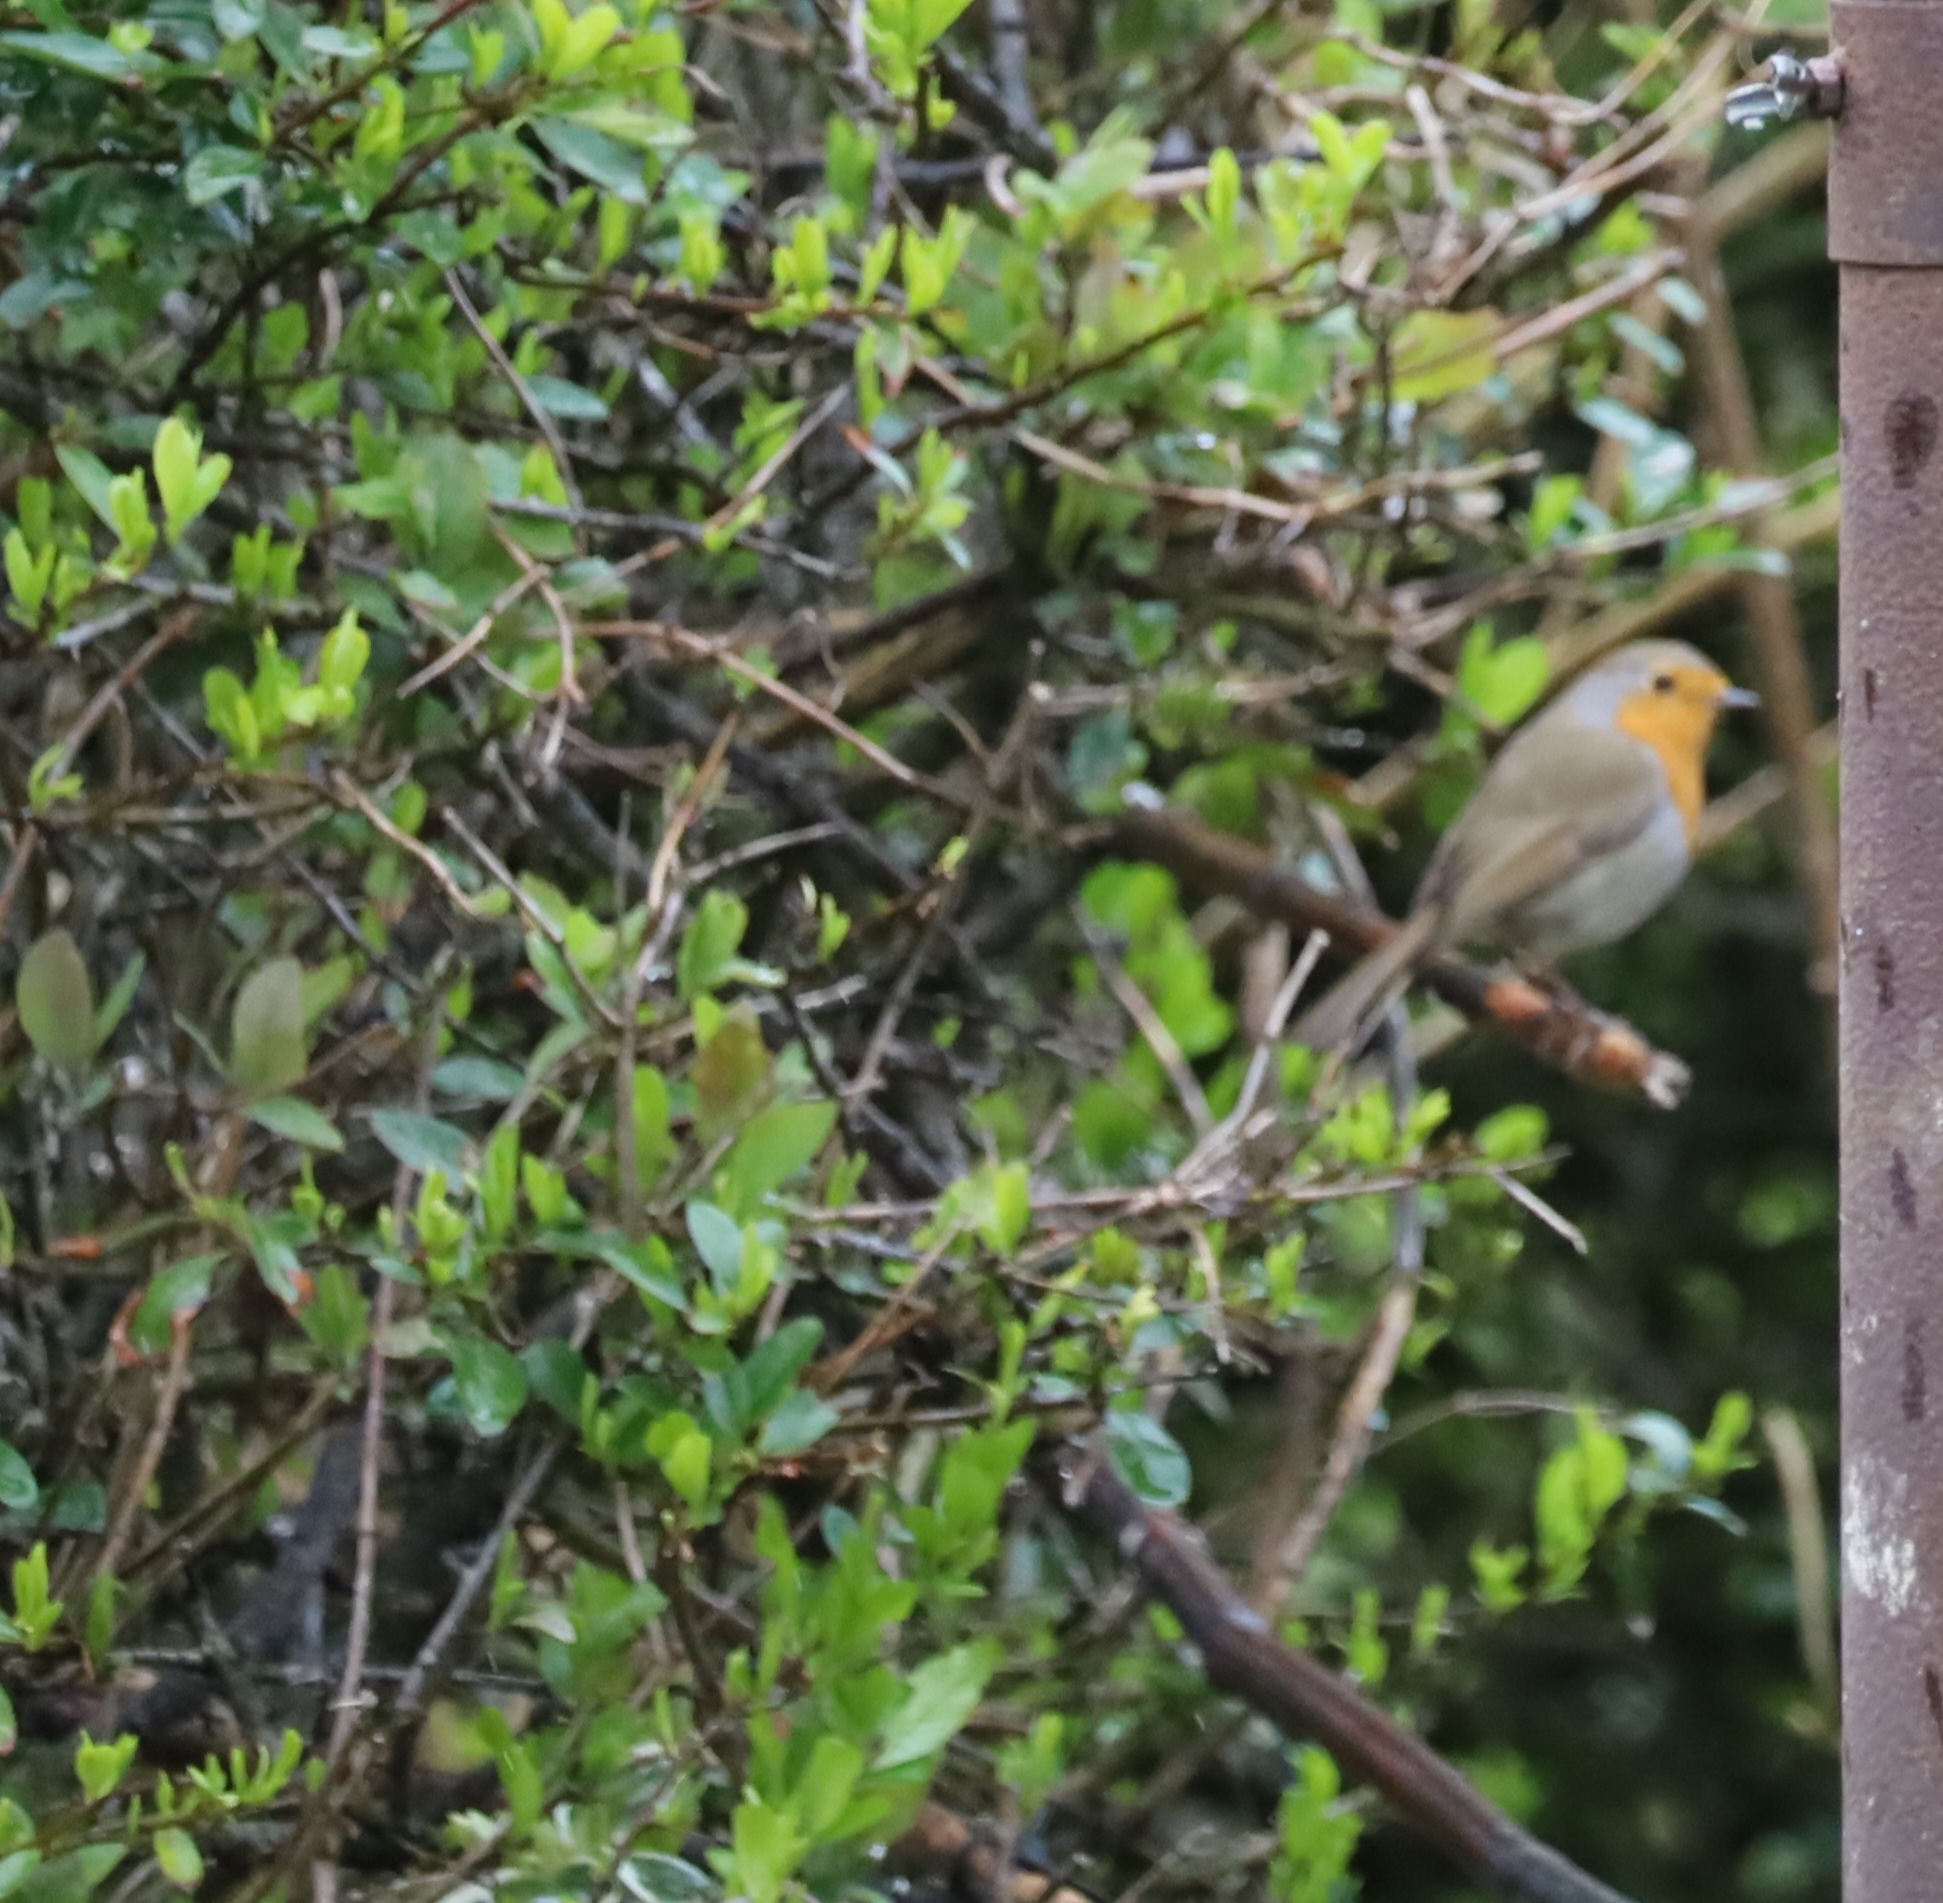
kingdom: Animalia
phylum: Chordata
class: Aves
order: Passeriformes
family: Muscicapidae
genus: Erithacus
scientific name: Erithacus rubecula
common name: European robin
